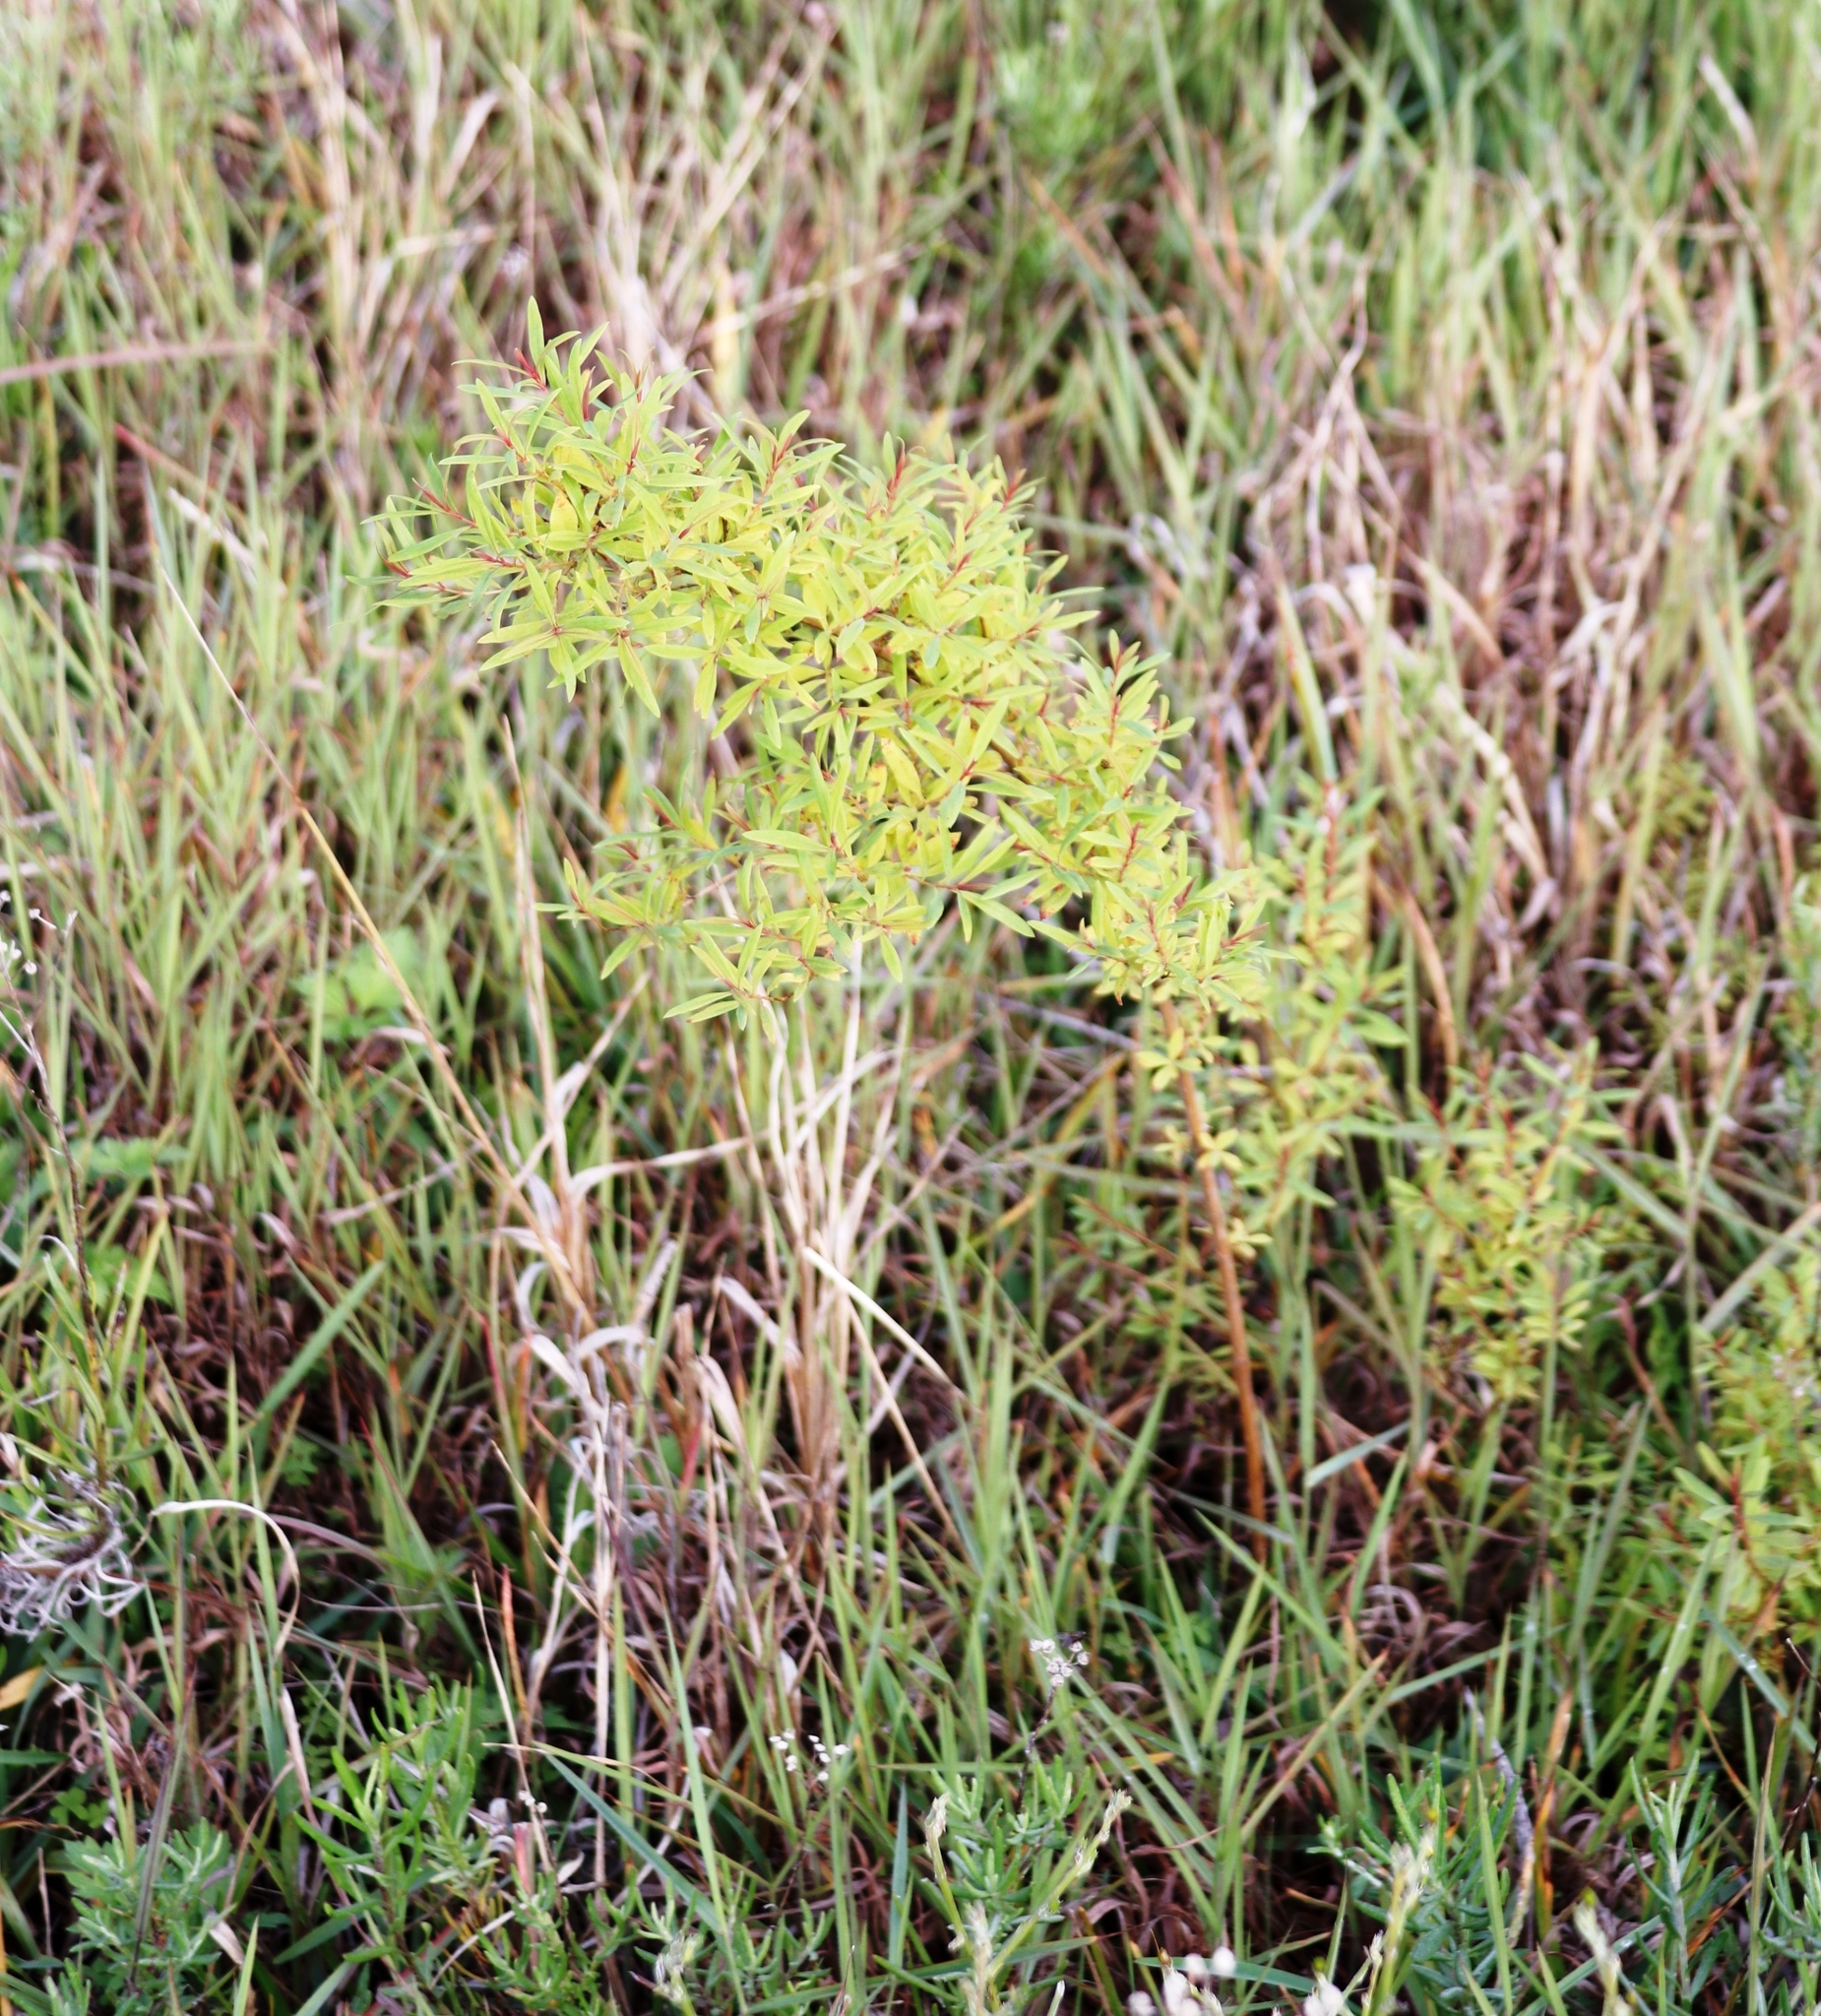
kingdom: Plantae
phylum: Tracheophyta
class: Magnoliopsida
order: Malpighiales
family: Hypericaceae
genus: Hypericum
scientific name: Hypericum canariense
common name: Canary island st. johnswort
